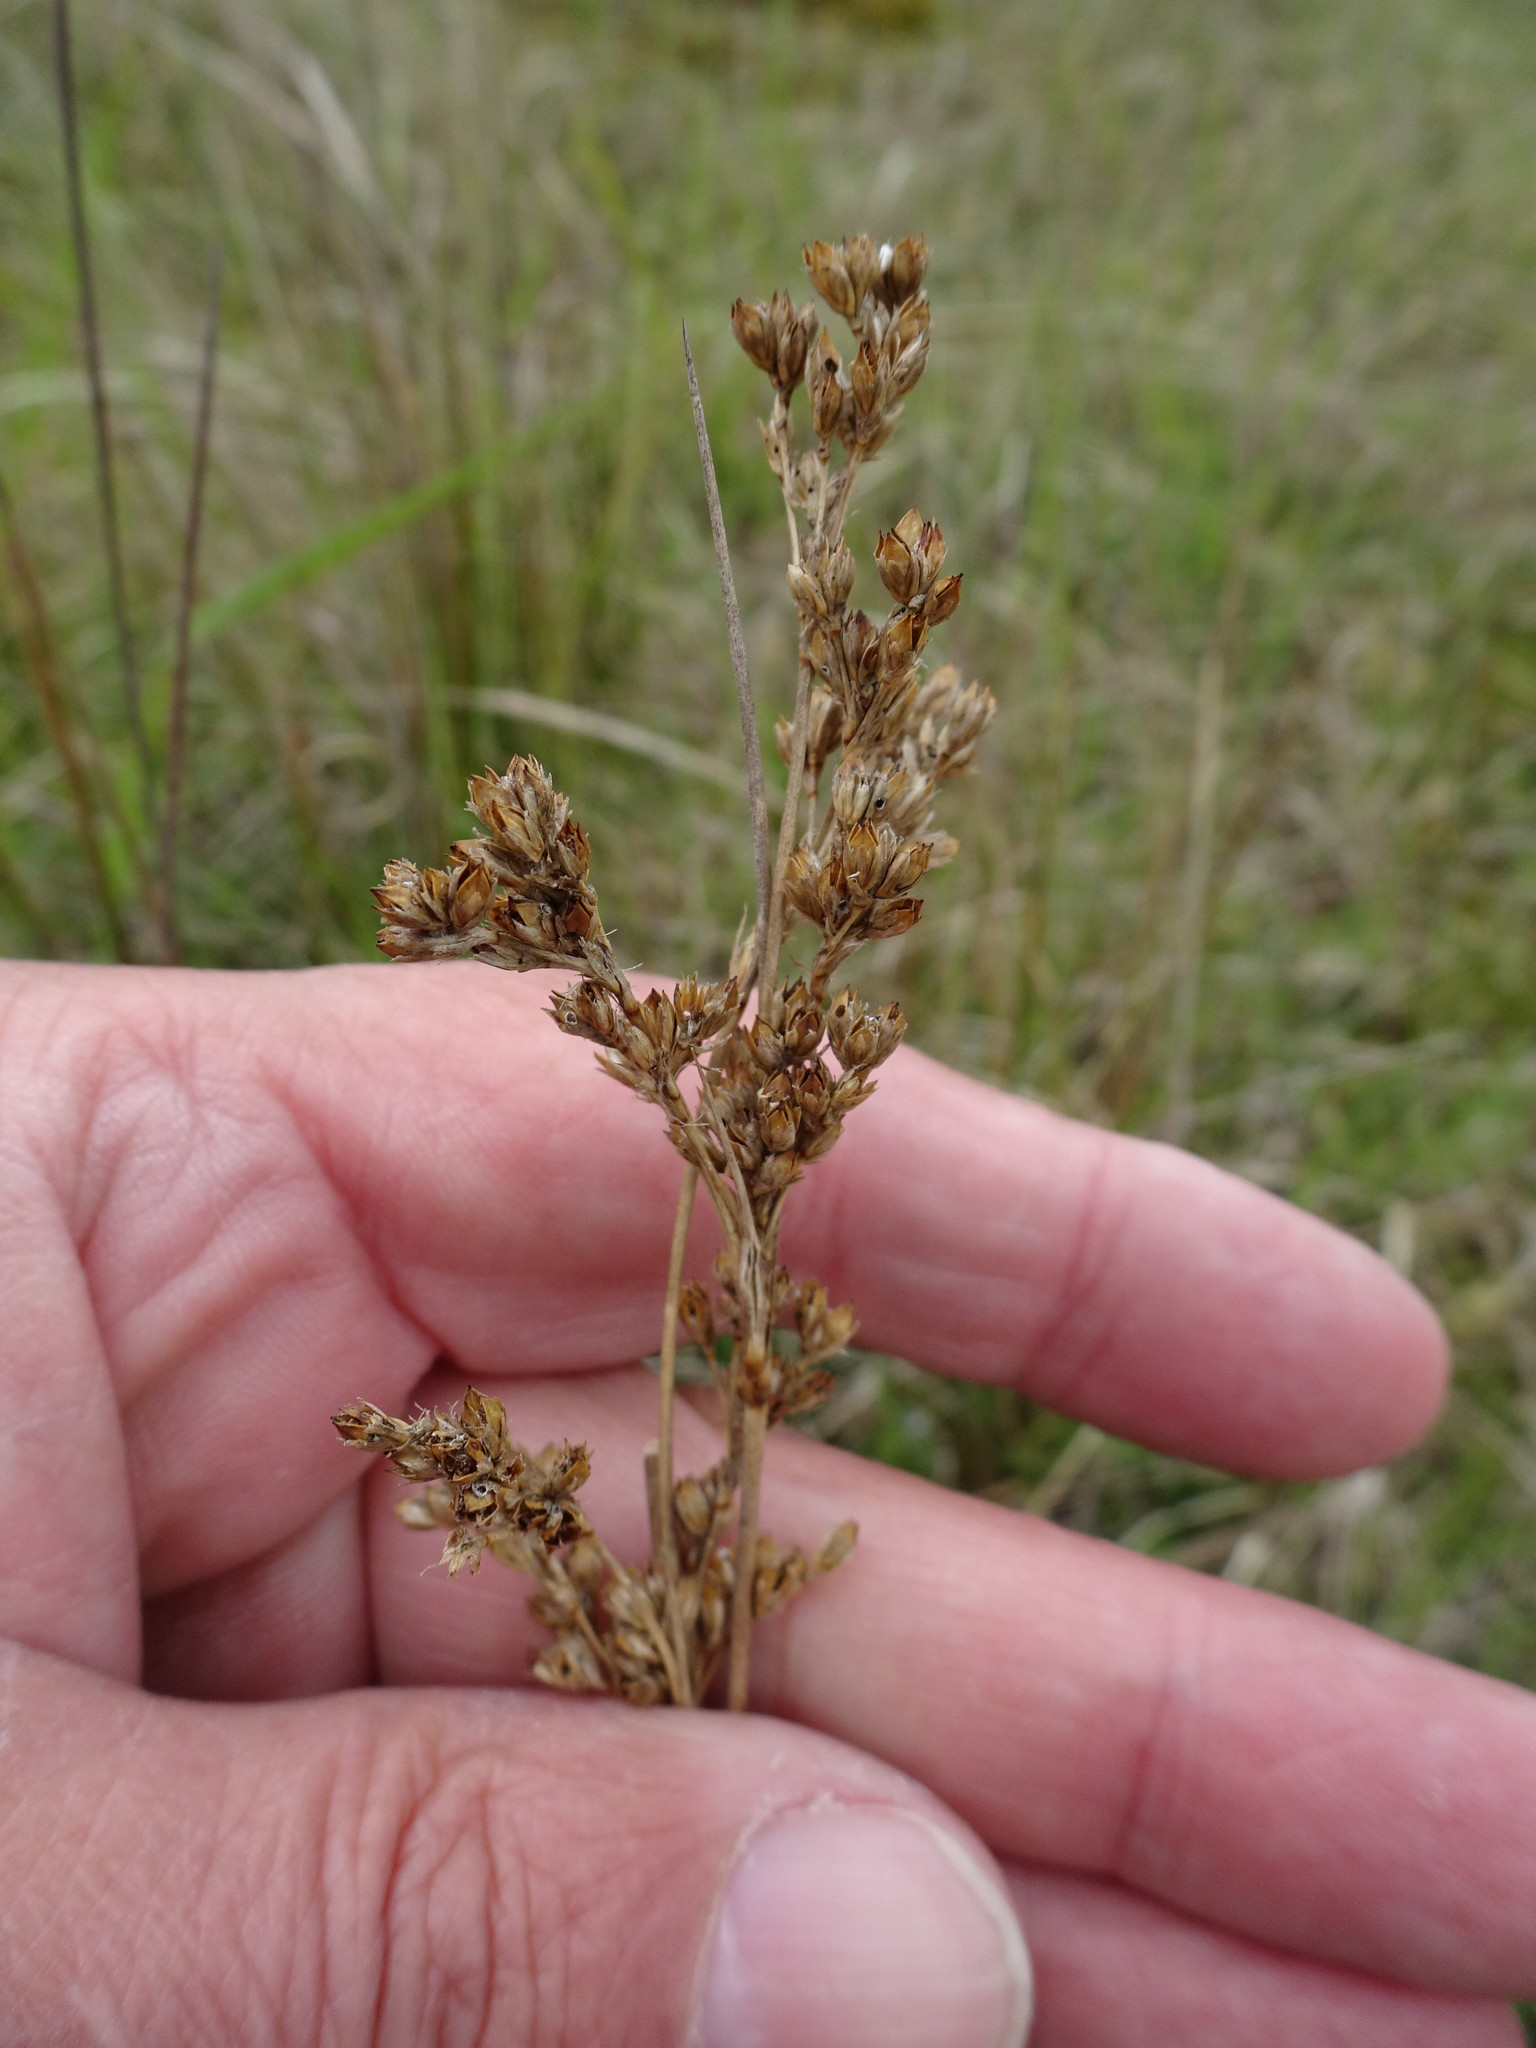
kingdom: Plantae
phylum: Tracheophyta
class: Liliopsida
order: Poales
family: Juncaceae
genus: Juncus
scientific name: Juncus maritimus
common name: Sea rush
